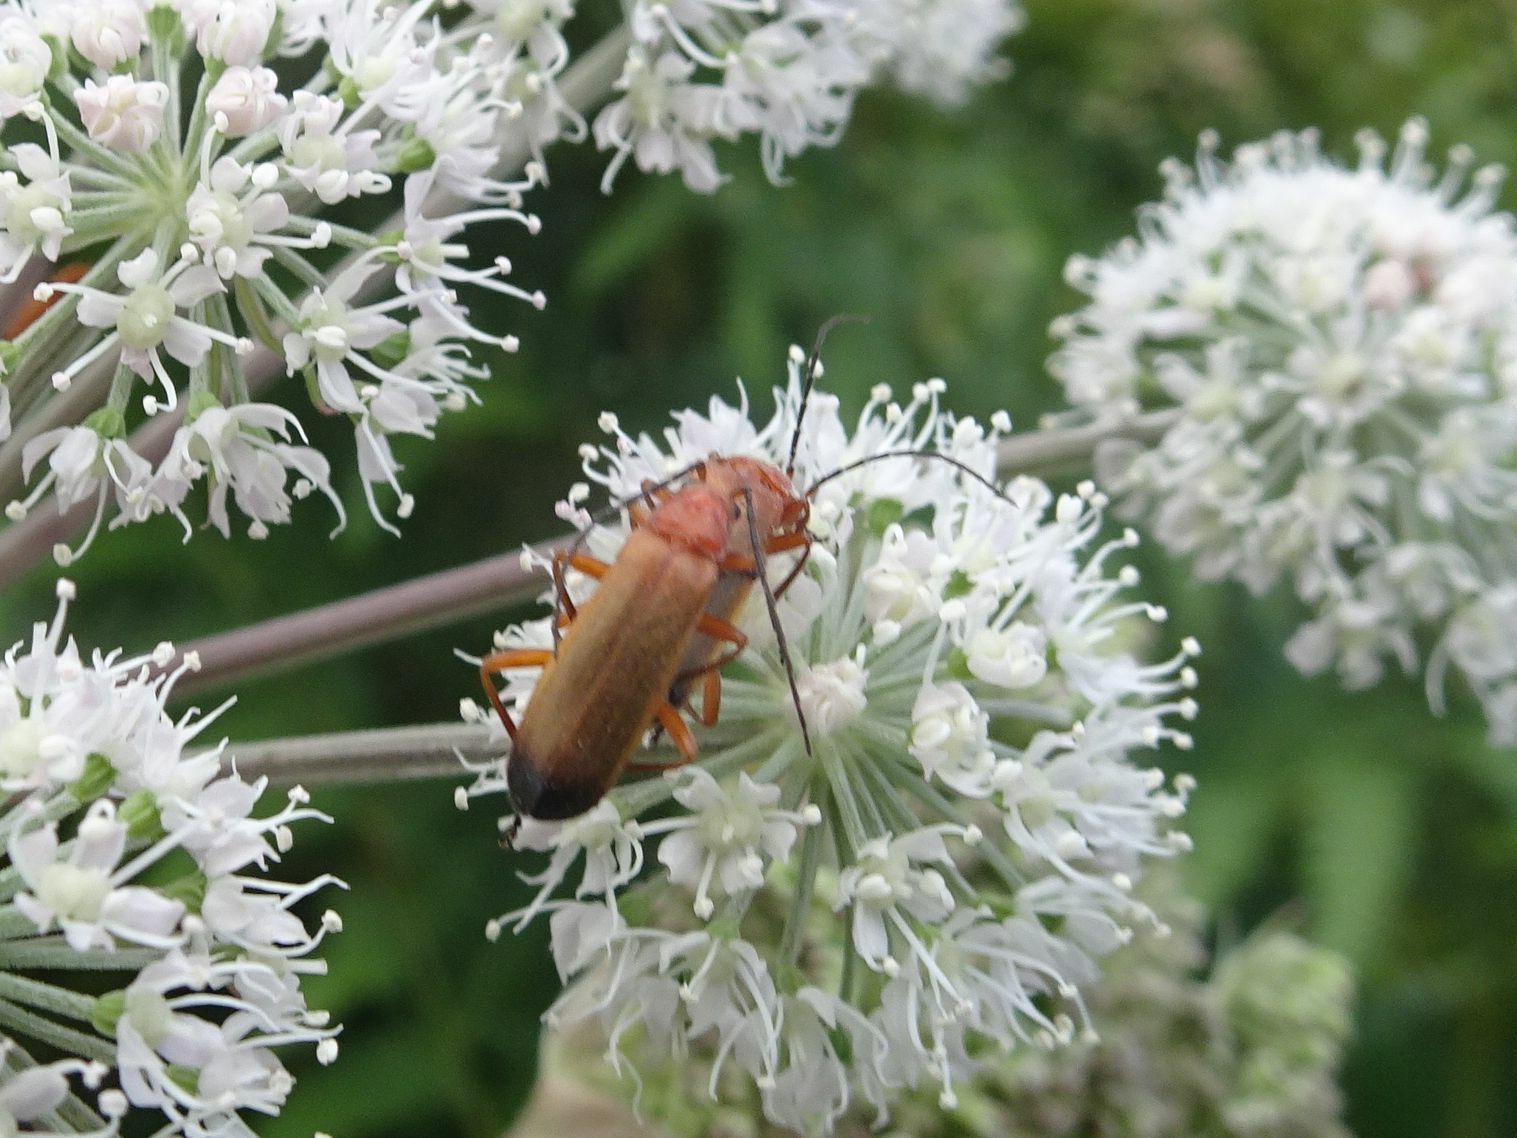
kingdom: Animalia
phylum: Arthropoda
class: Insecta
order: Coleoptera
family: Cantharidae
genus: Rhagonycha
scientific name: Rhagonycha fulva
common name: Common red soldier beetle
